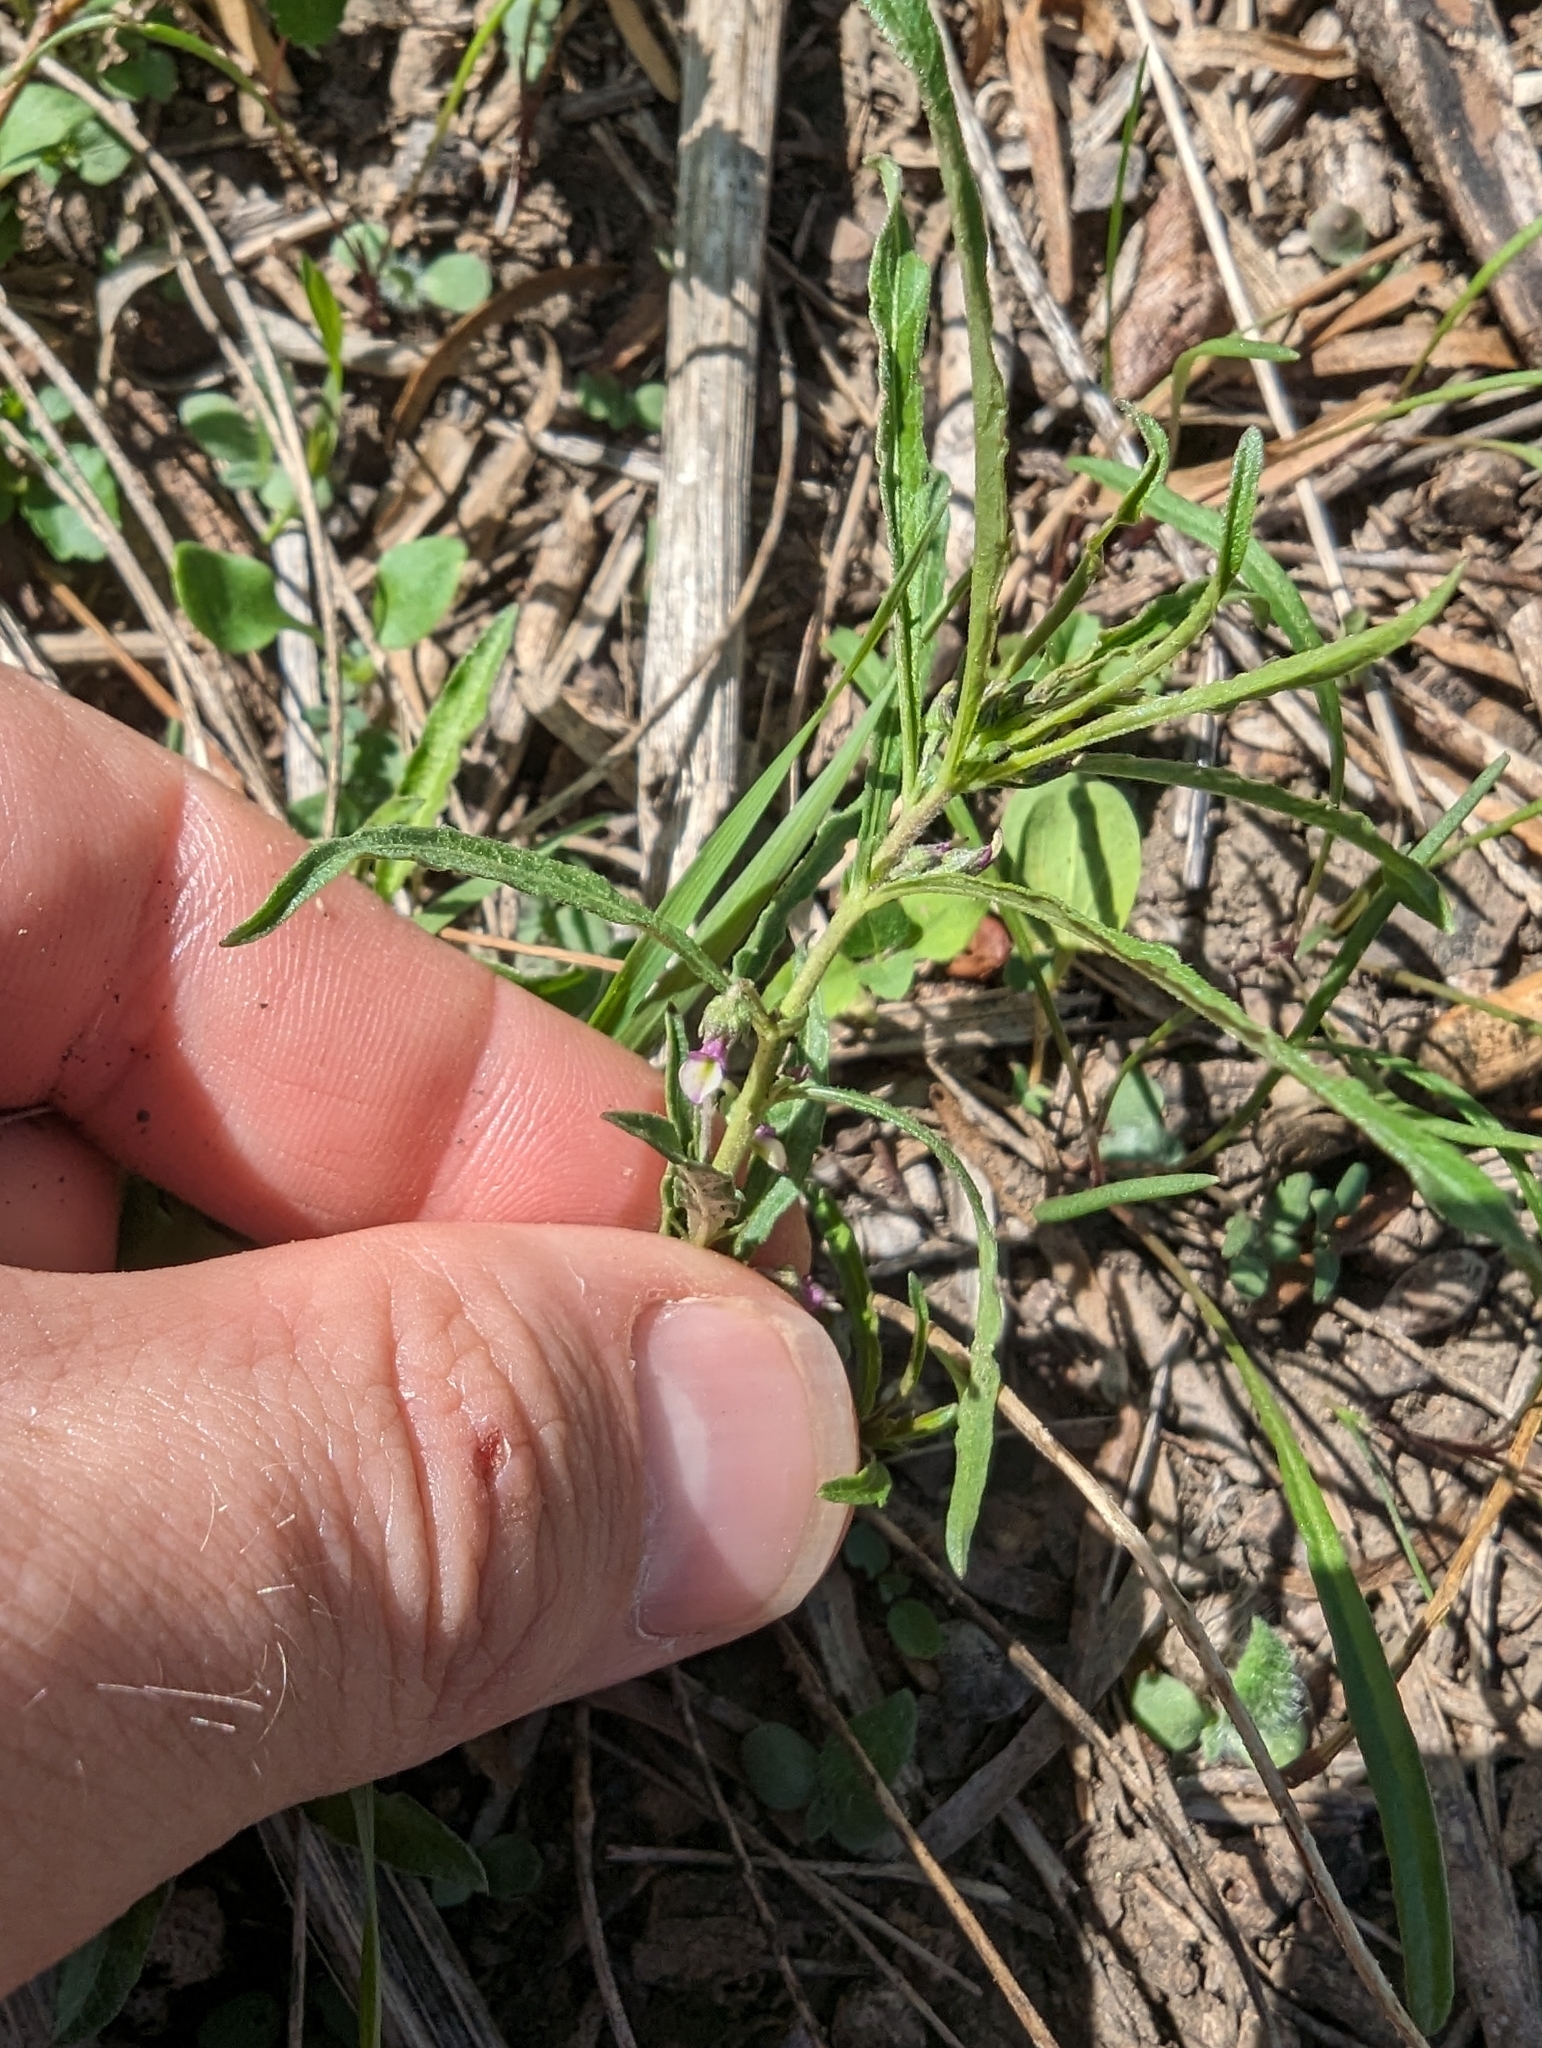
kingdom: Plantae
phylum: Tracheophyta
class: Magnoliopsida
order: Malpighiales
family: Violaceae
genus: Pombalia
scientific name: Pombalia verticillata
